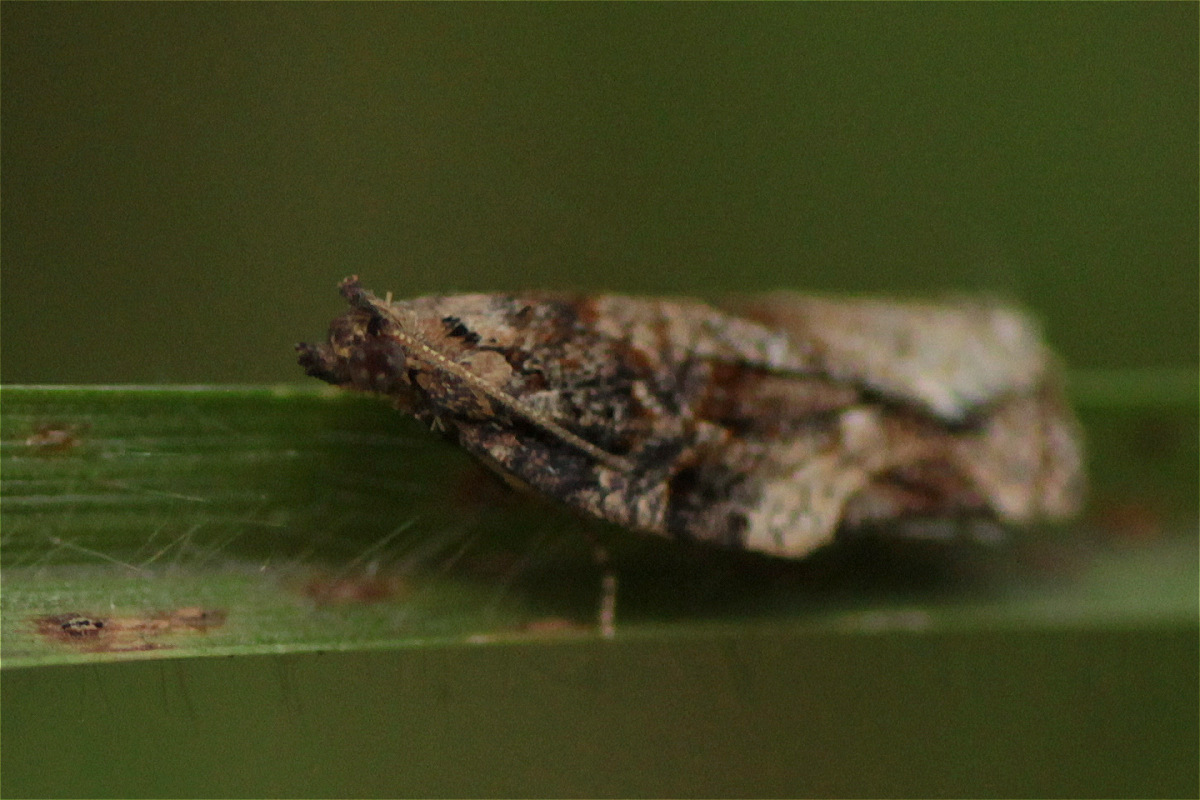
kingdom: Animalia
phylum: Arthropoda
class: Insecta
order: Lepidoptera
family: Tortricidae
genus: Argyrotaenia
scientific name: Argyrotaenia sphaleropa
